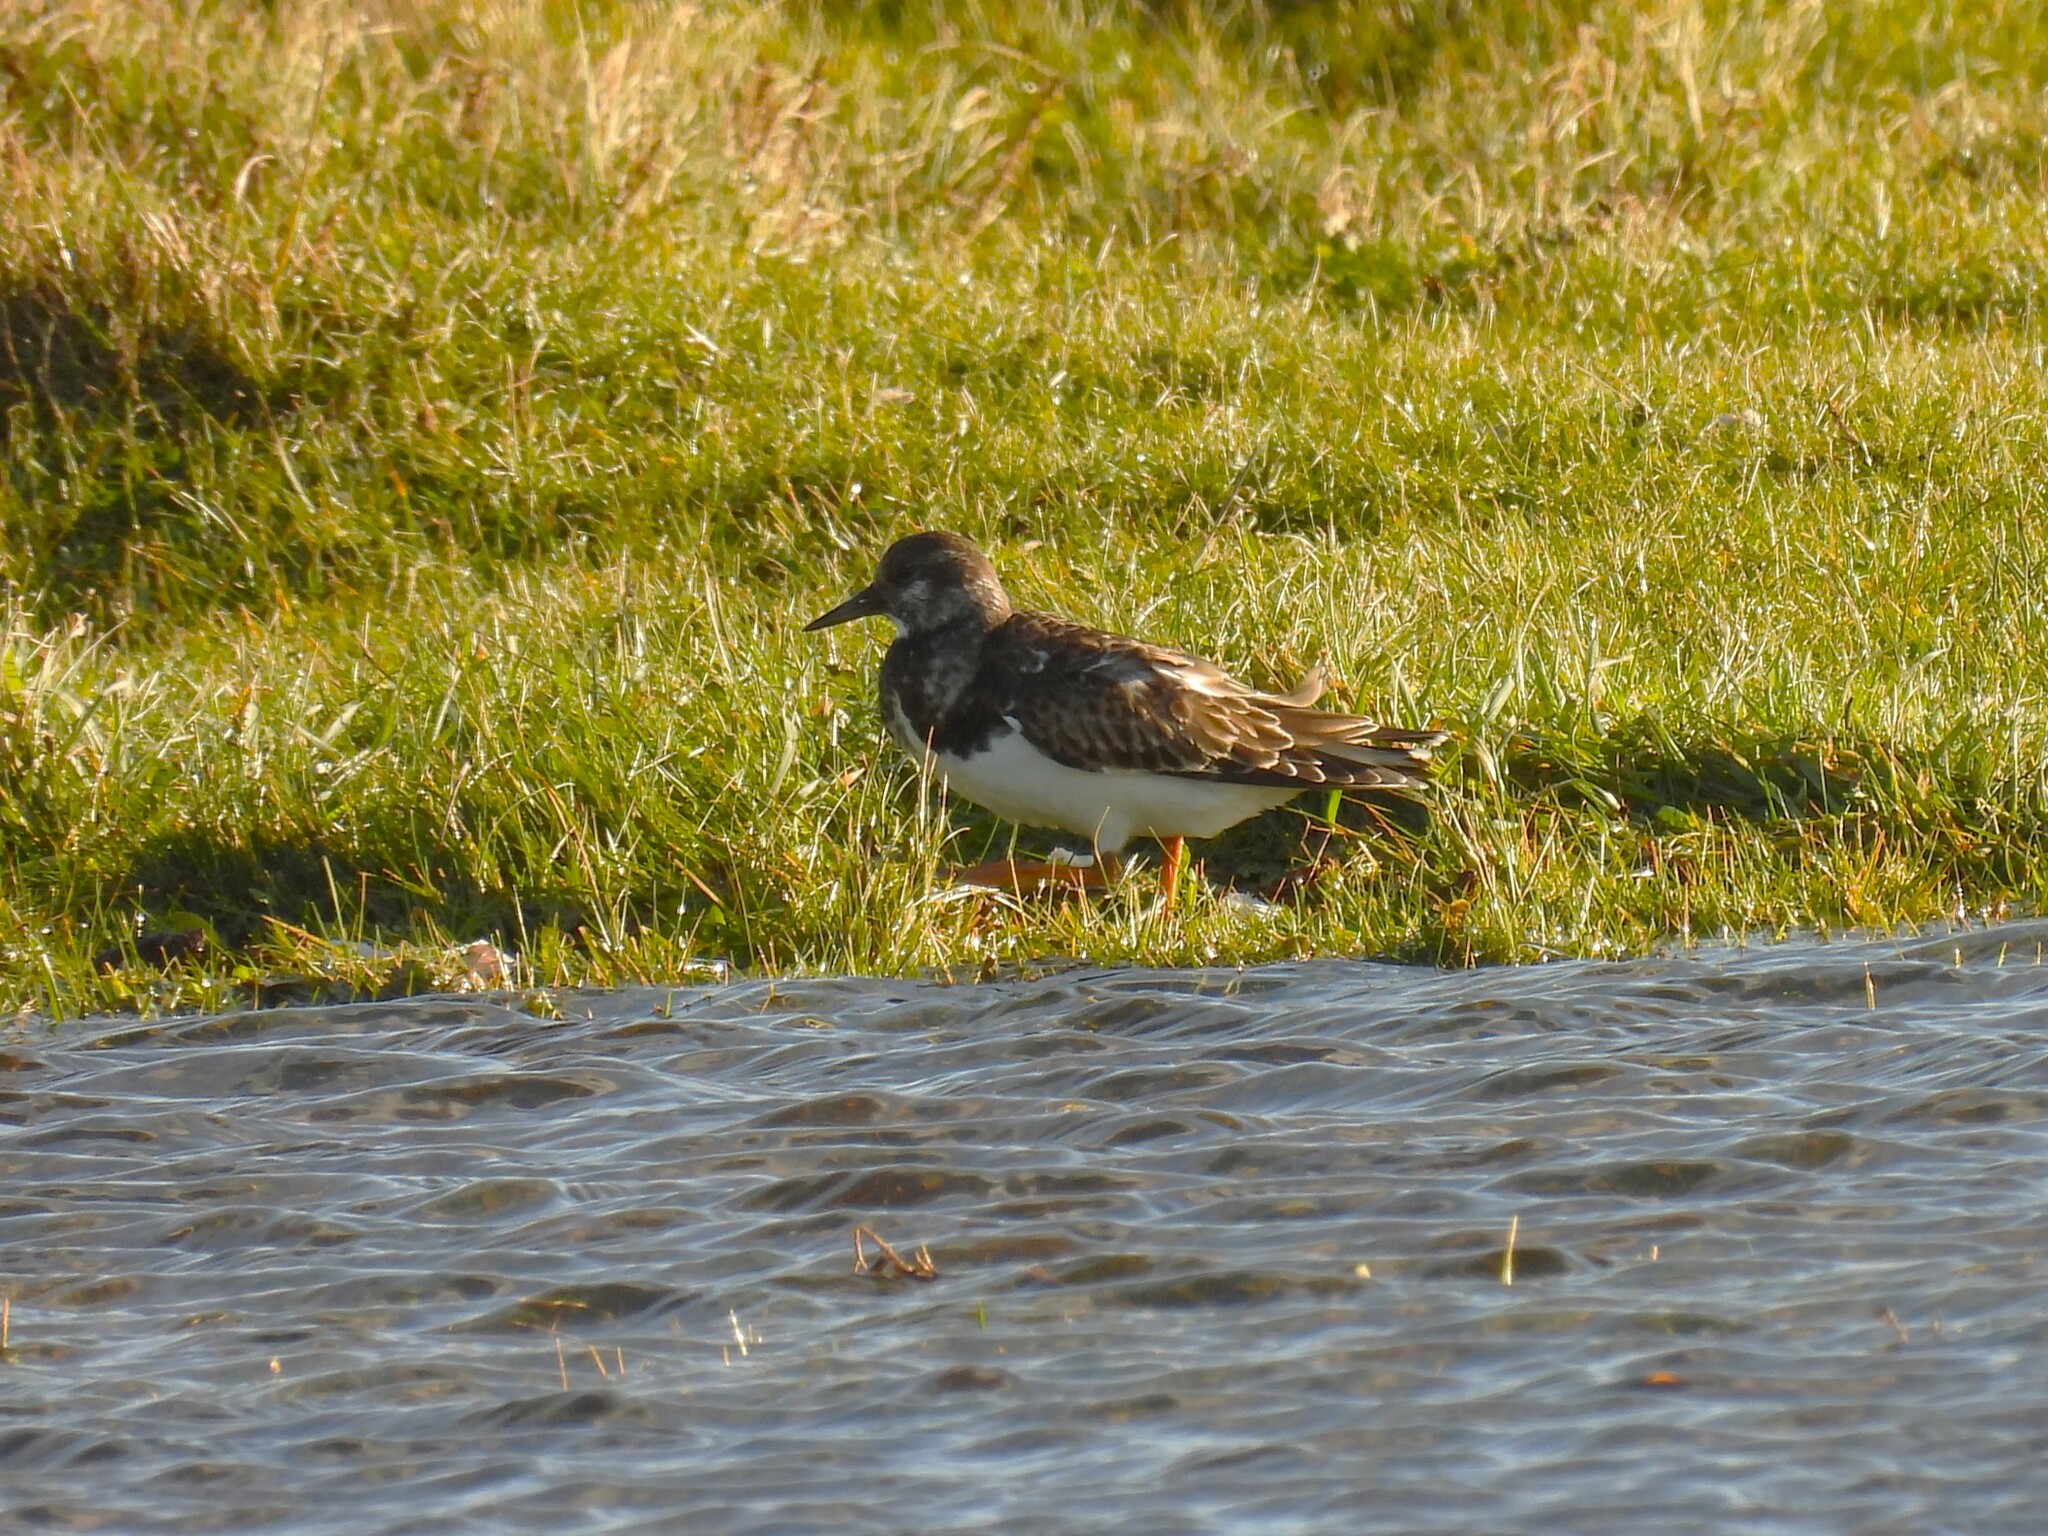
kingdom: Animalia
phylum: Chordata
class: Aves
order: Charadriiformes
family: Scolopacidae
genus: Arenaria
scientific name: Arenaria interpres
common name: Ruddy turnstone
